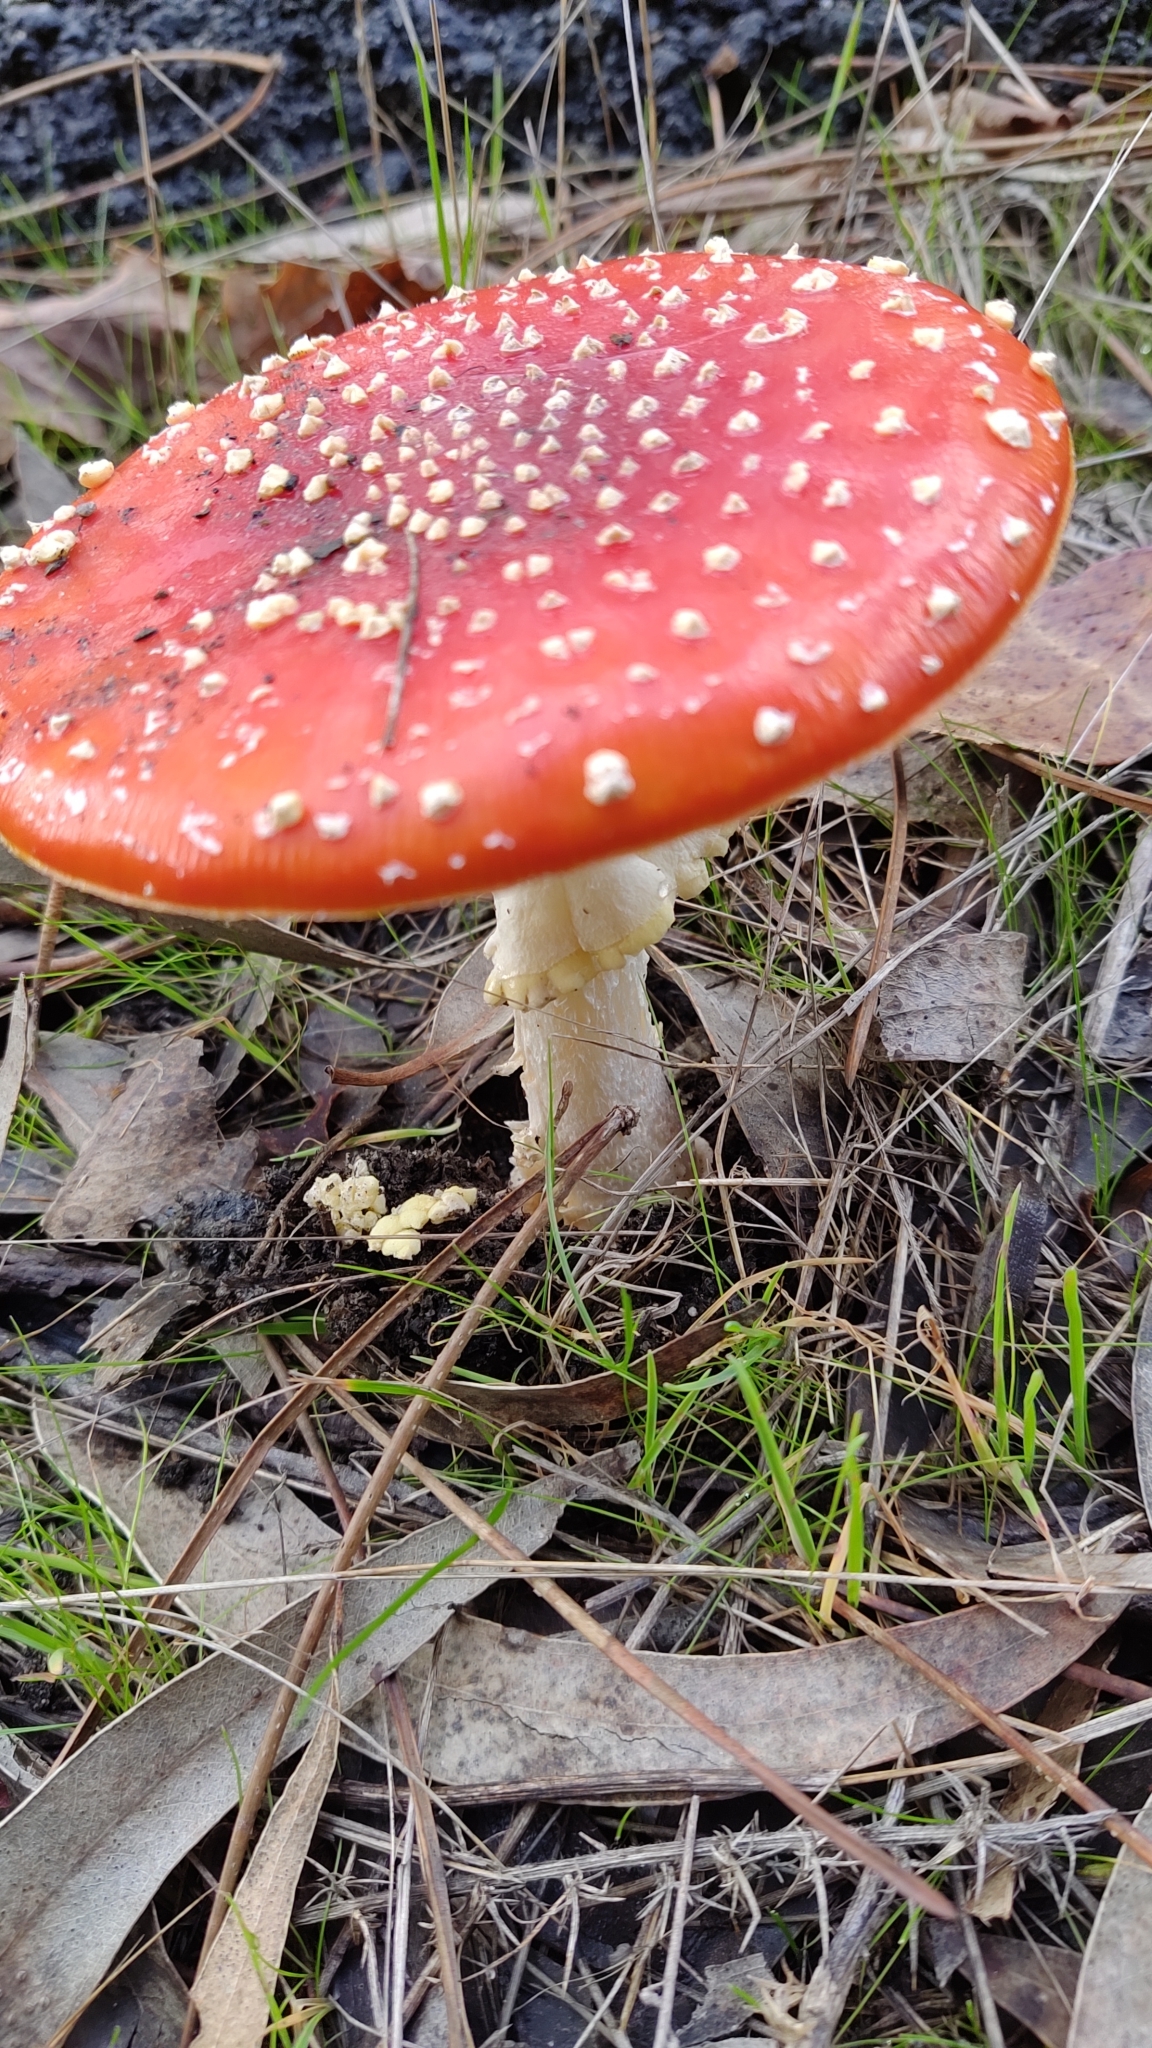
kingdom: Fungi
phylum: Basidiomycota
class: Agaricomycetes
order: Agaricales
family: Amanitaceae
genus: Amanita
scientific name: Amanita muscaria
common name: Fly agaric
